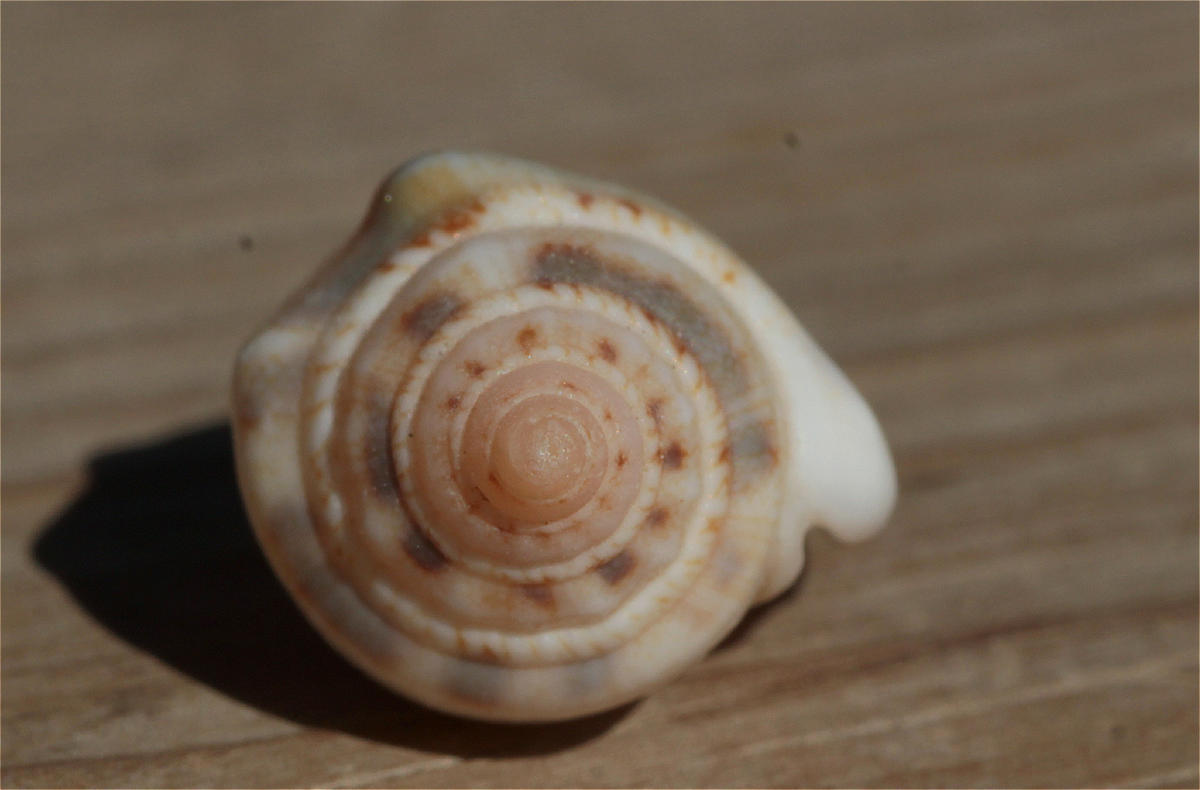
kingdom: Animalia
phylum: Mollusca
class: Gastropoda
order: Littorinimorpha
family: Strombidae
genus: Canarium
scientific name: Canarium mutabile
